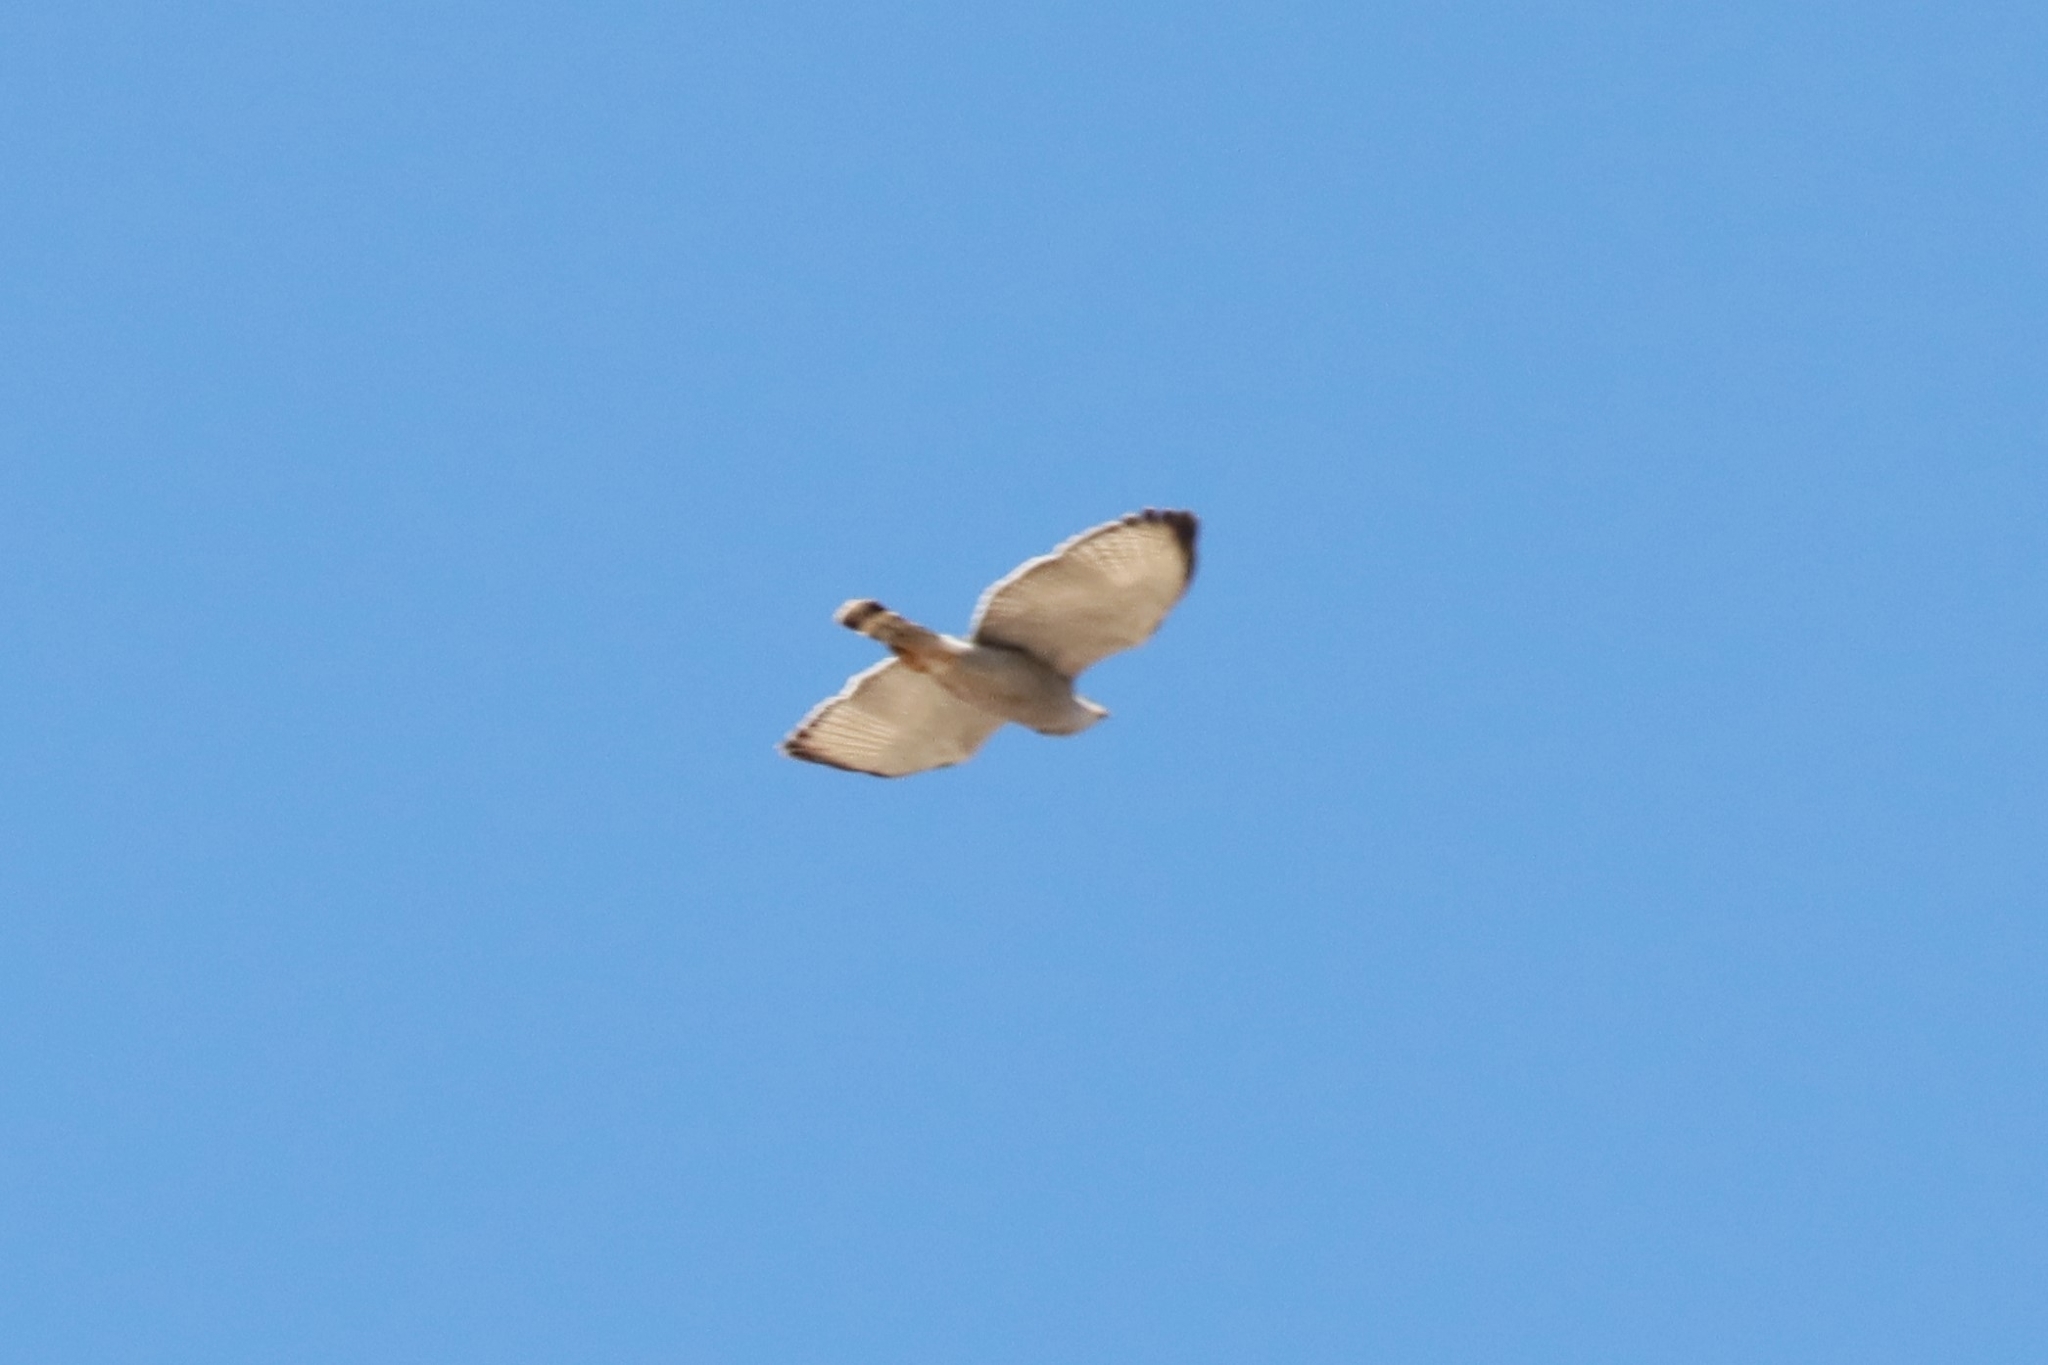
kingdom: Animalia
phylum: Chordata
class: Aves
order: Accipitriformes
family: Accipitridae
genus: Buteo
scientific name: Buteo nitidus
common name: Grey-lined hawk
